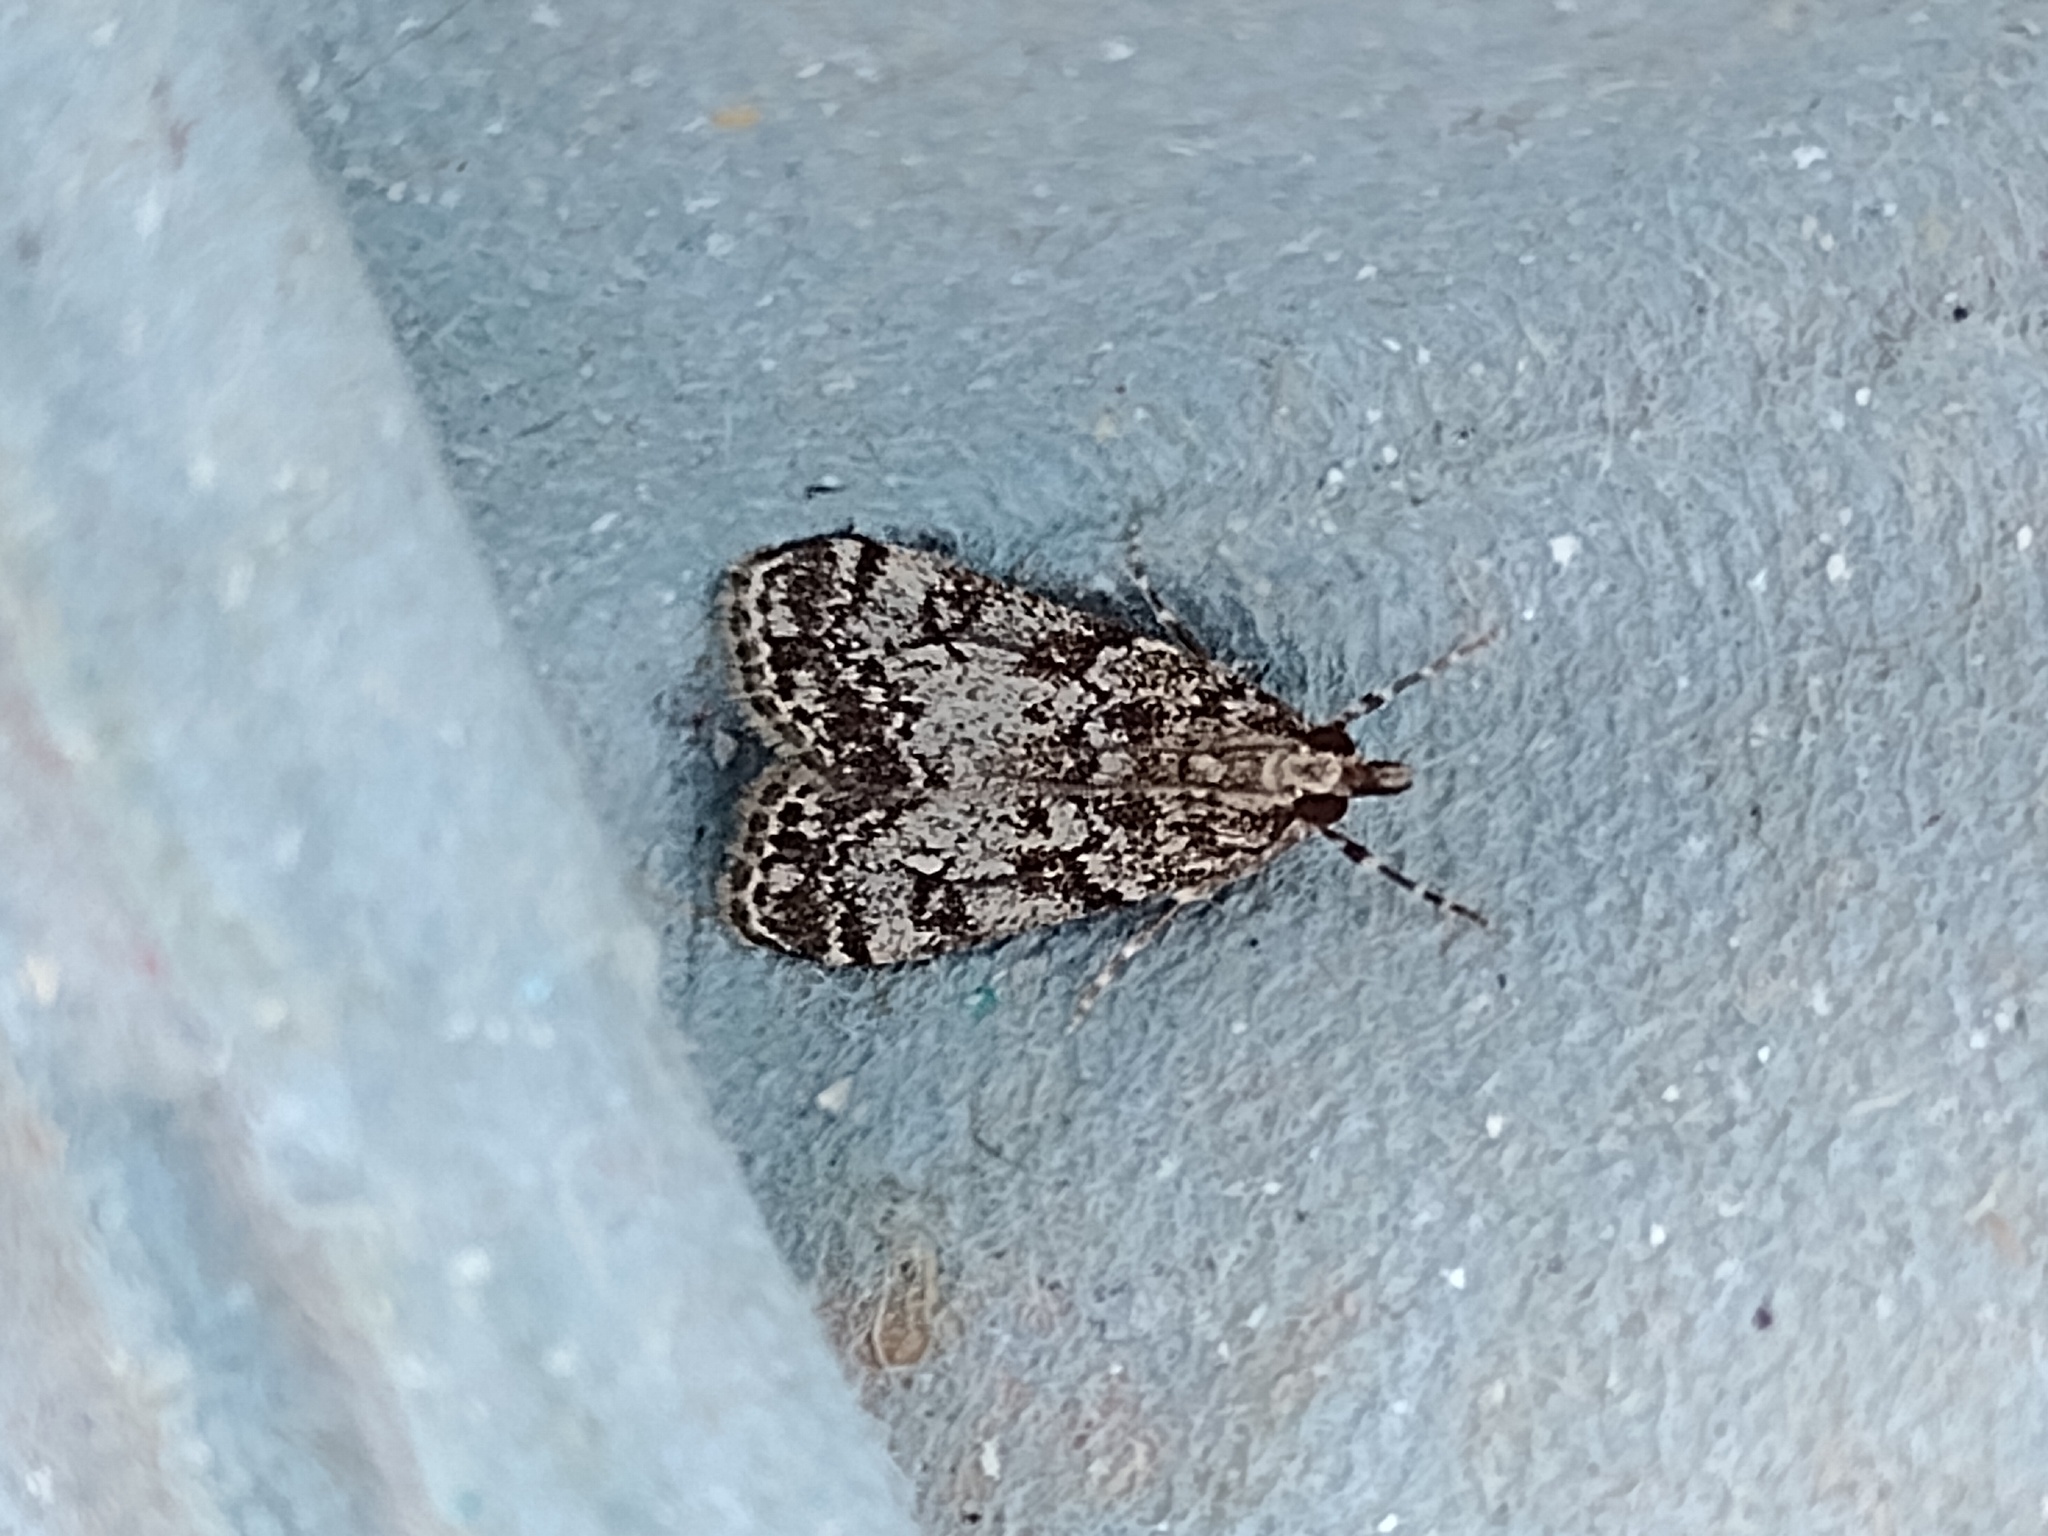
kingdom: Animalia
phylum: Arthropoda
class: Insecta
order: Lepidoptera
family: Crambidae
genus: Eudonia
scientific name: Eudonia lacustrata
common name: Little grey
